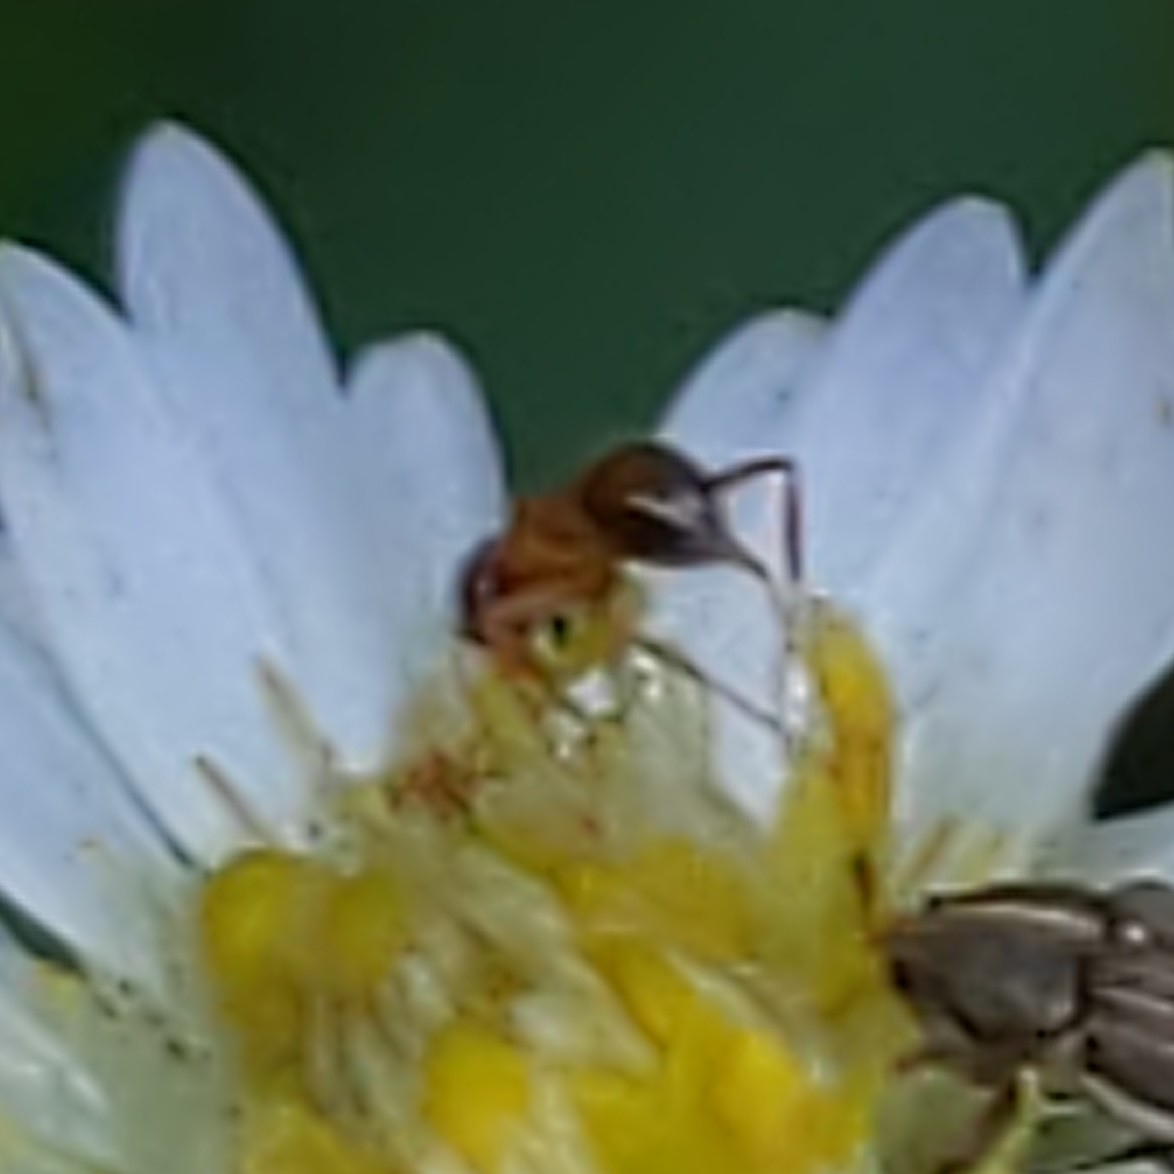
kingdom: Animalia
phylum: Arthropoda
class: Insecta
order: Hymenoptera
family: Formicidae
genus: Paratrechina
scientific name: Paratrechina flavipes
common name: Eastern asian formicine ant
